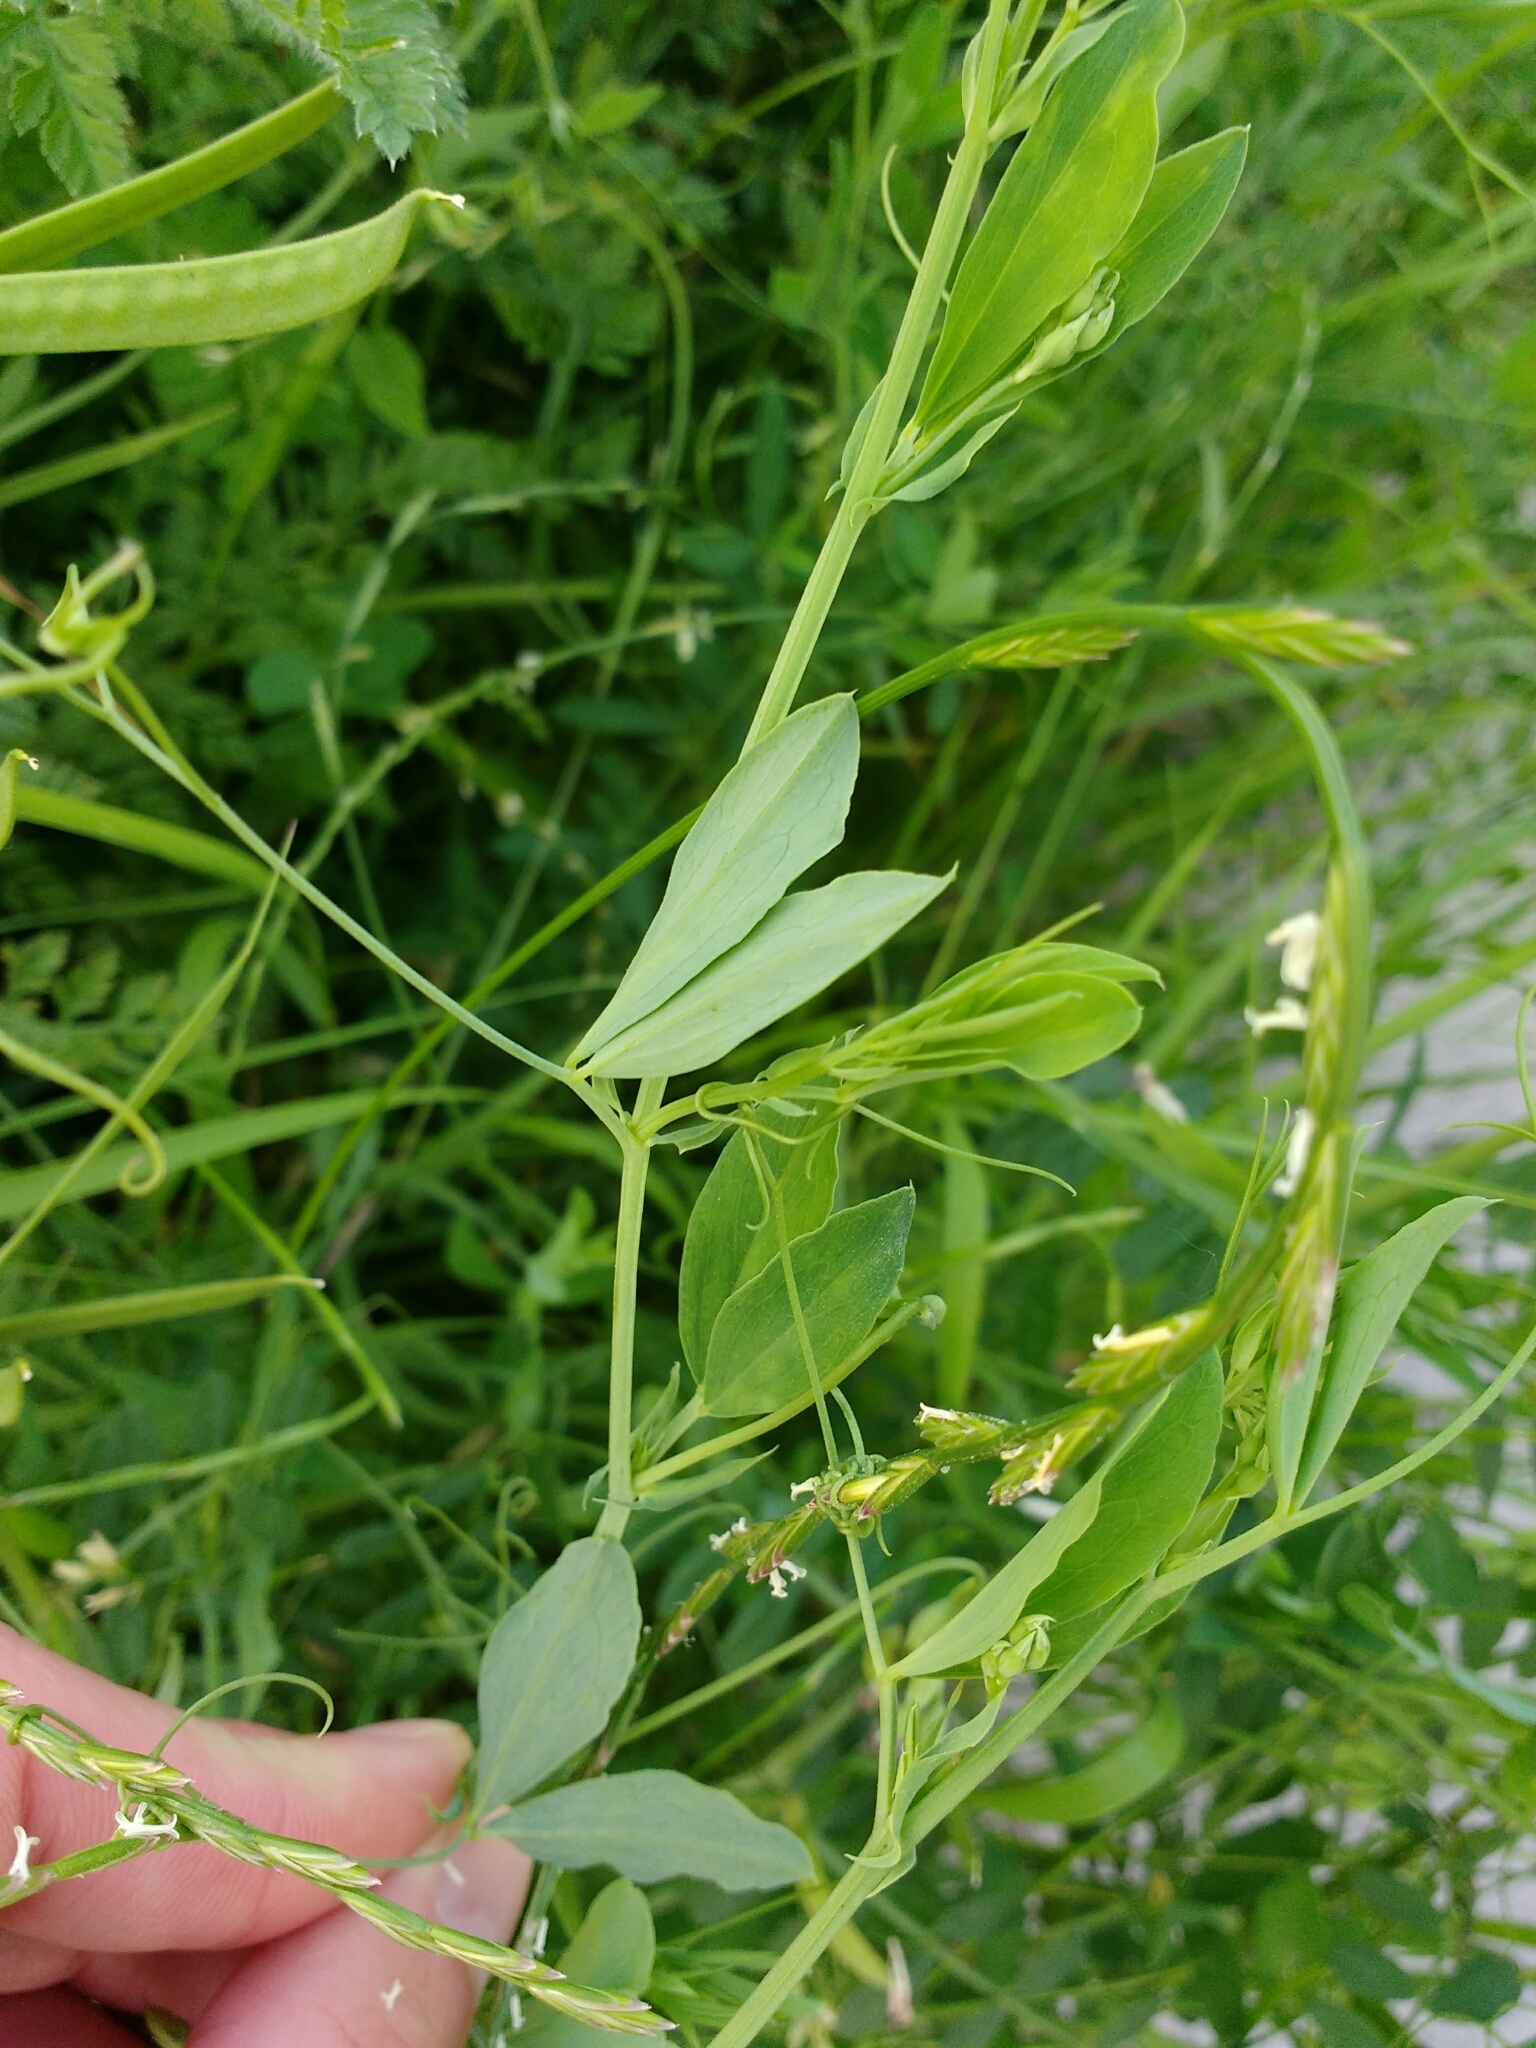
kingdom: Plantae
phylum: Tracheophyta
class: Magnoliopsida
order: Fabales
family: Fabaceae
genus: Lathyrus
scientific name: Lathyrus tuberosus
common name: Tuberous pea
